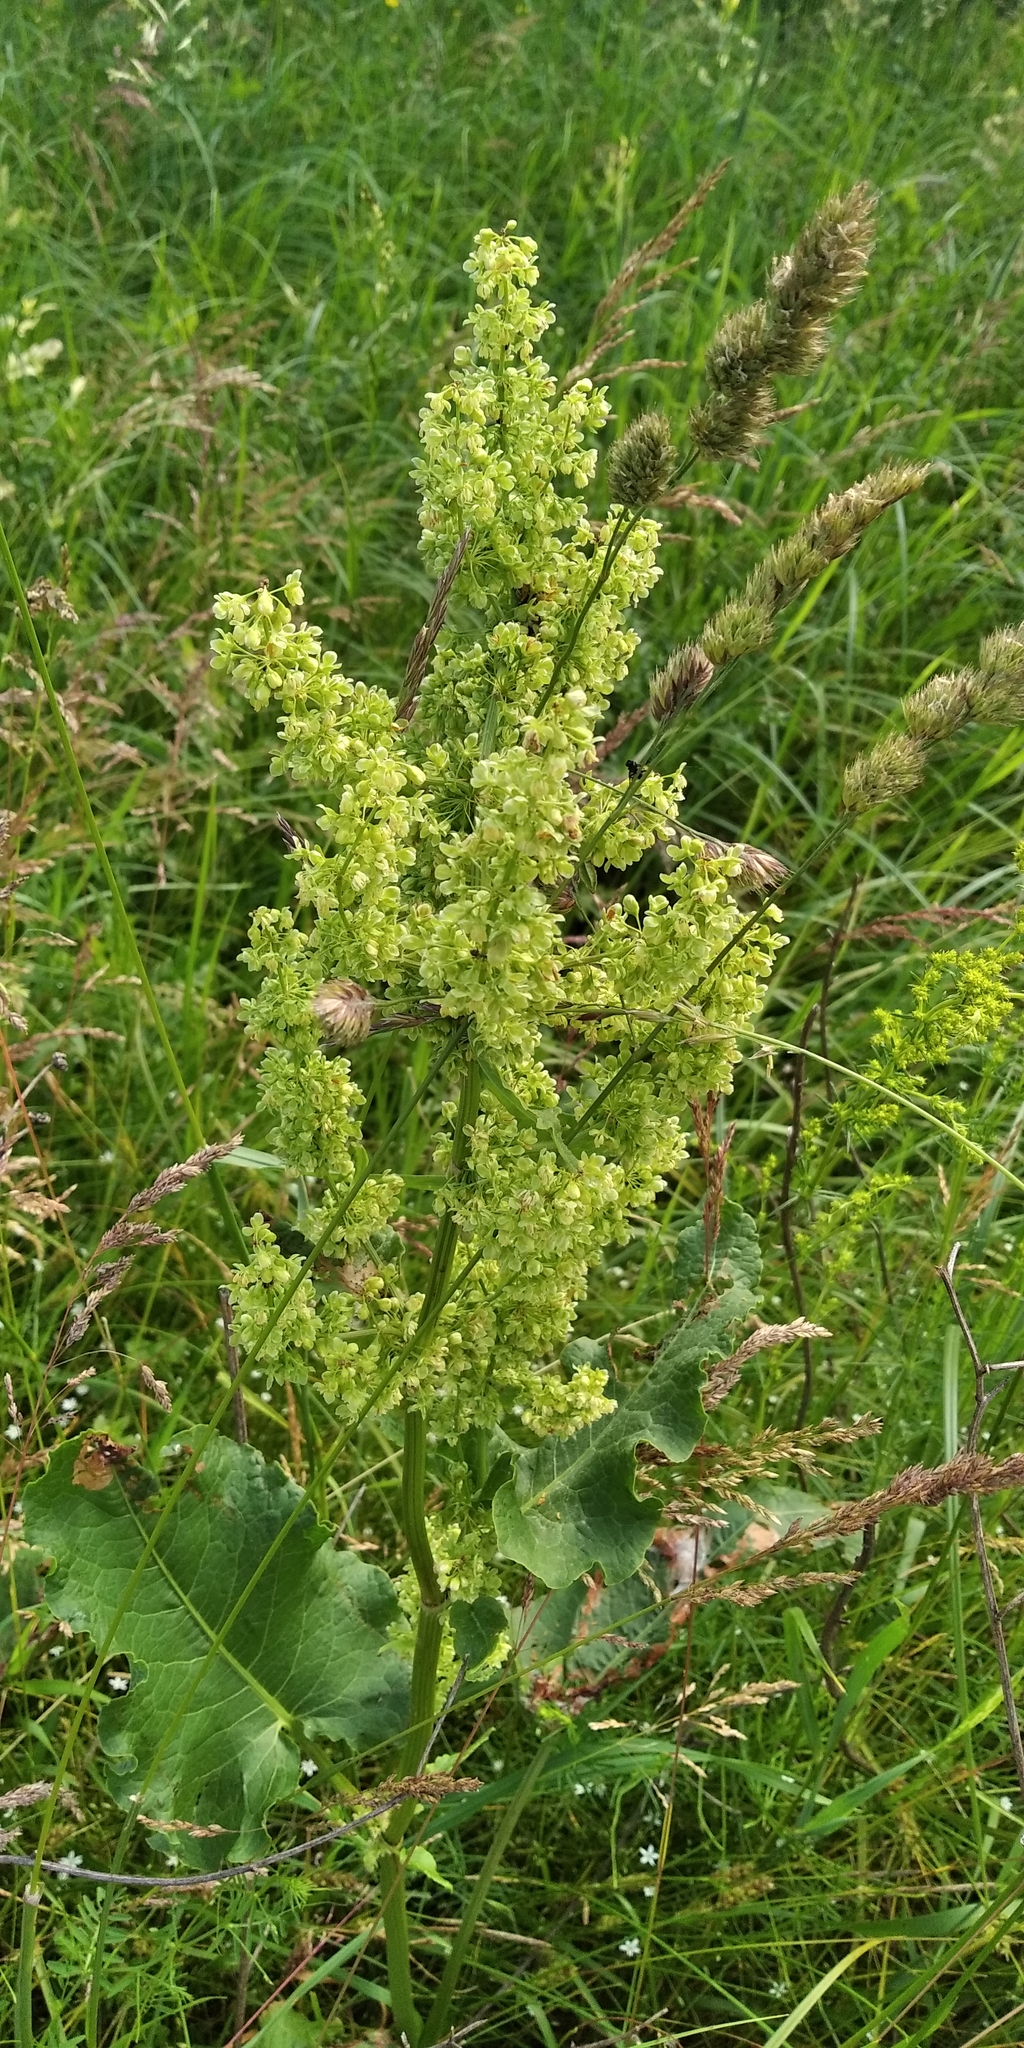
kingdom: Plantae
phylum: Tracheophyta
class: Magnoliopsida
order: Caryophyllales
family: Polygonaceae
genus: Rumex
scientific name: Rumex confertus
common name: Russian dock
